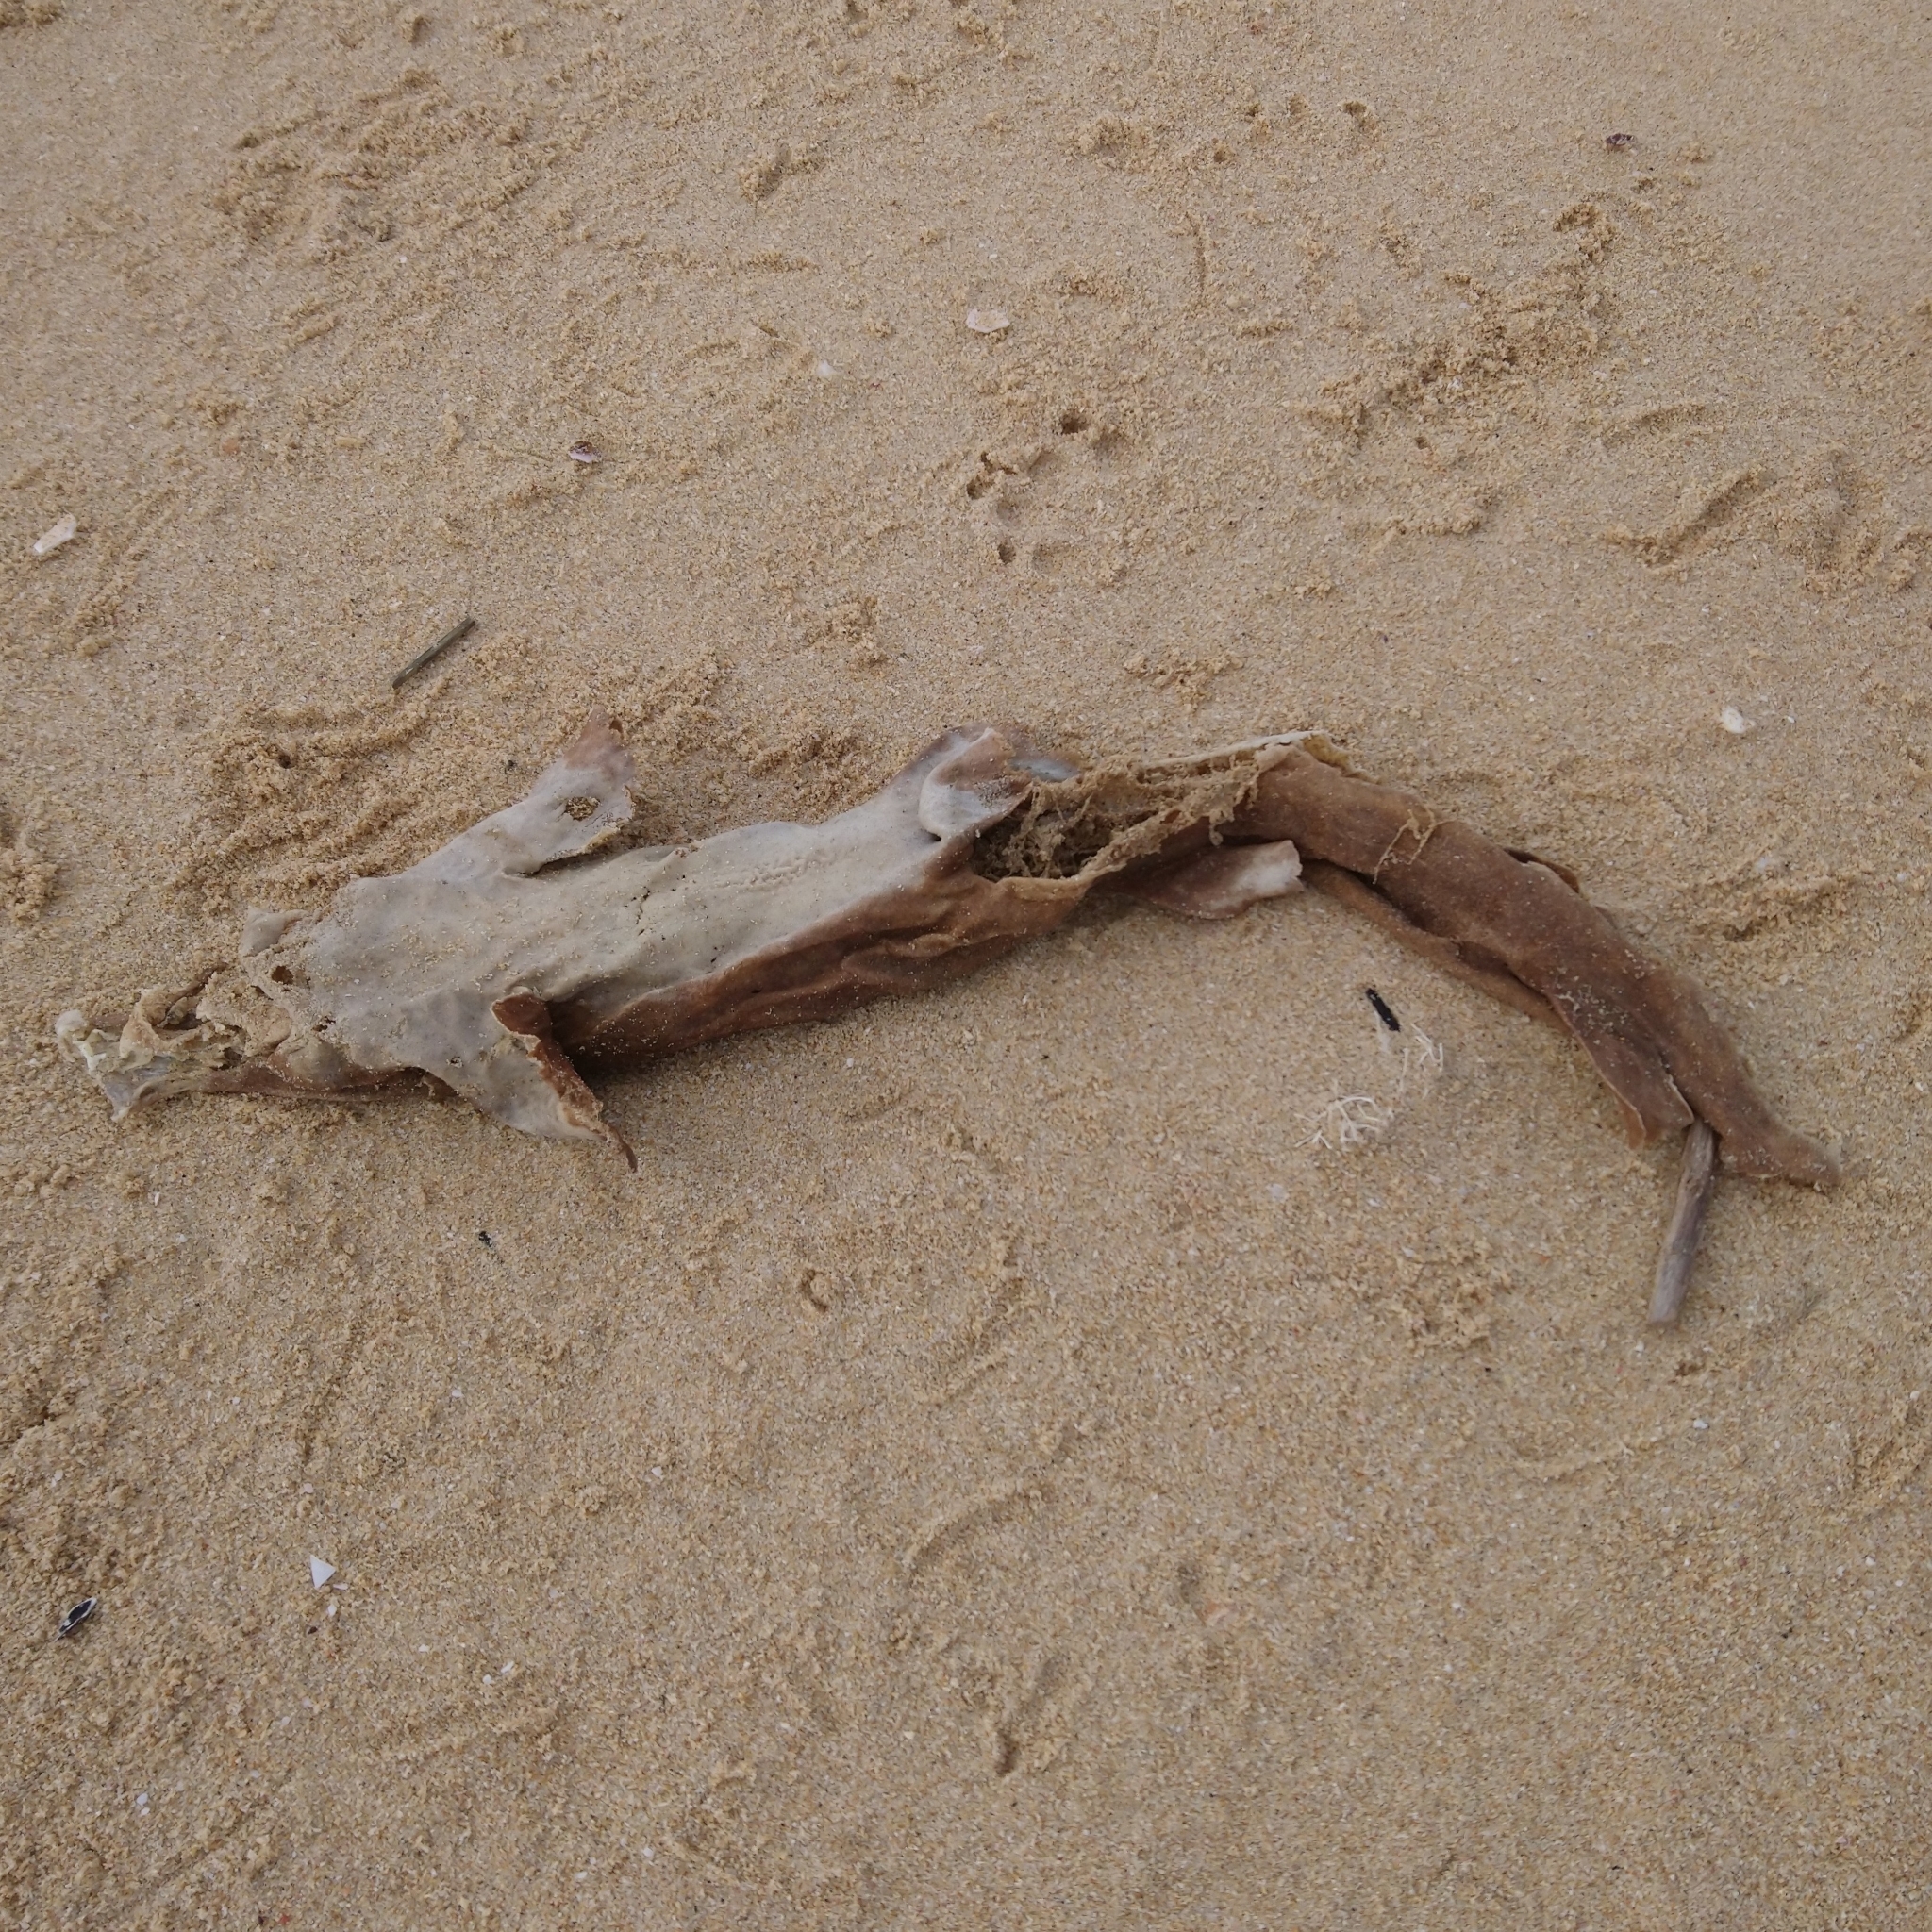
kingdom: Animalia
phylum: Chordata
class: Elasmobranchii
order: Carcharhiniformes
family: Scyliorhinidae
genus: Haploblepharus
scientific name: Haploblepharus fuscus
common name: Brown shyshark
